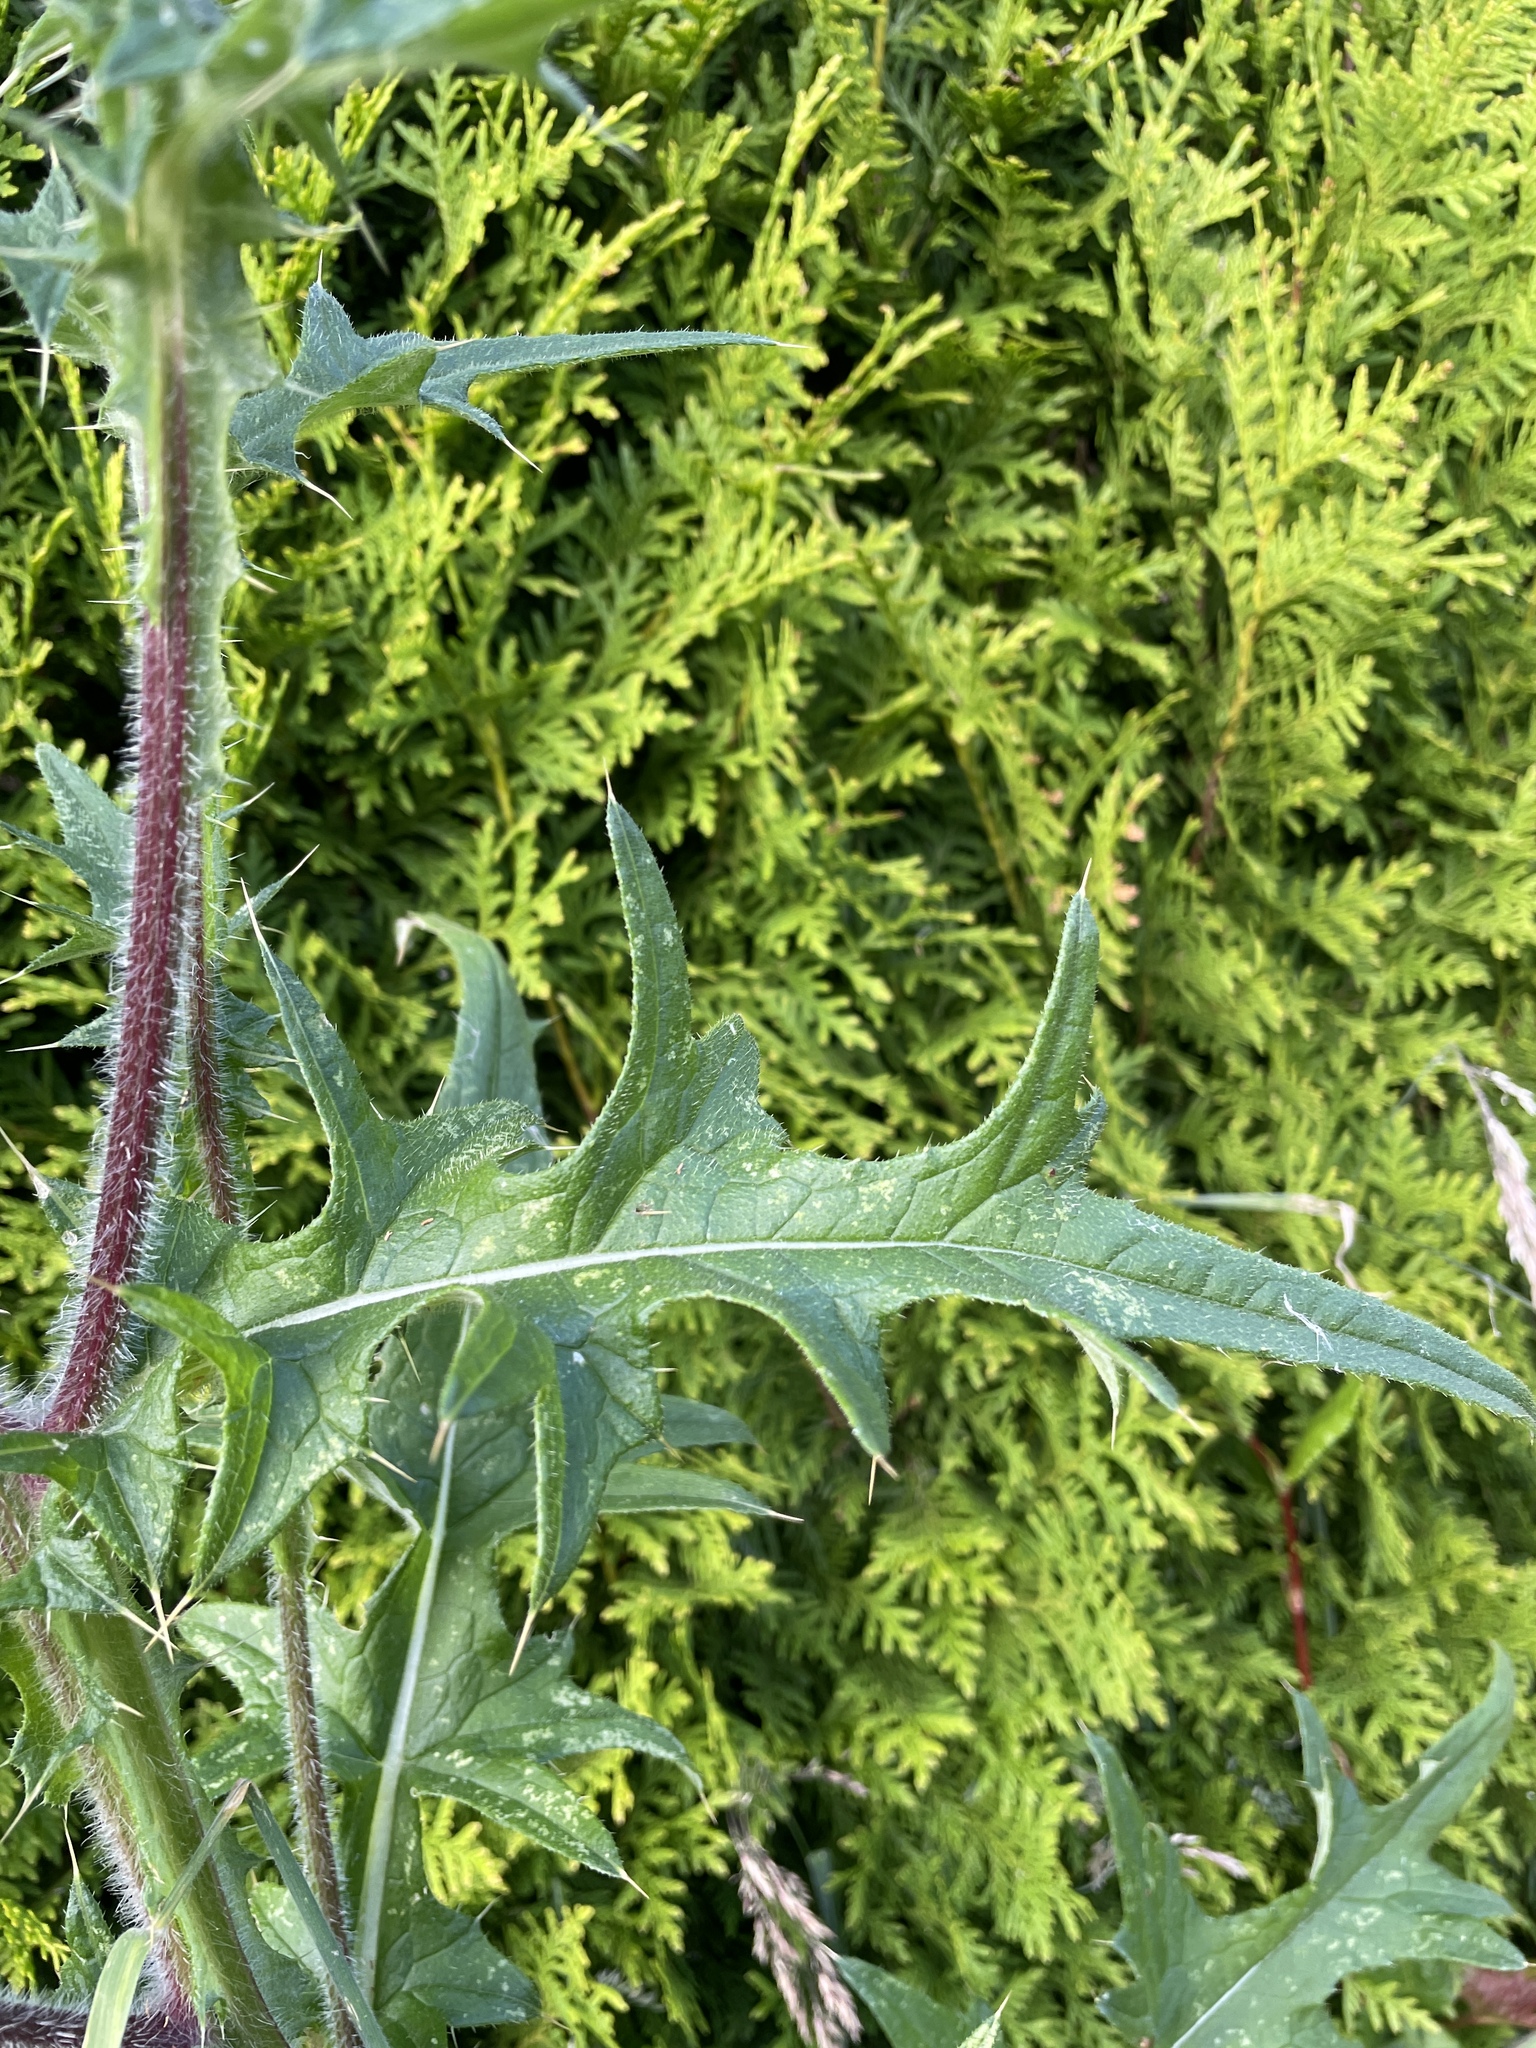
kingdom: Plantae
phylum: Tracheophyta
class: Magnoliopsida
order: Asterales
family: Asteraceae
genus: Cirsium
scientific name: Cirsium vulgare
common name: Bull thistle
